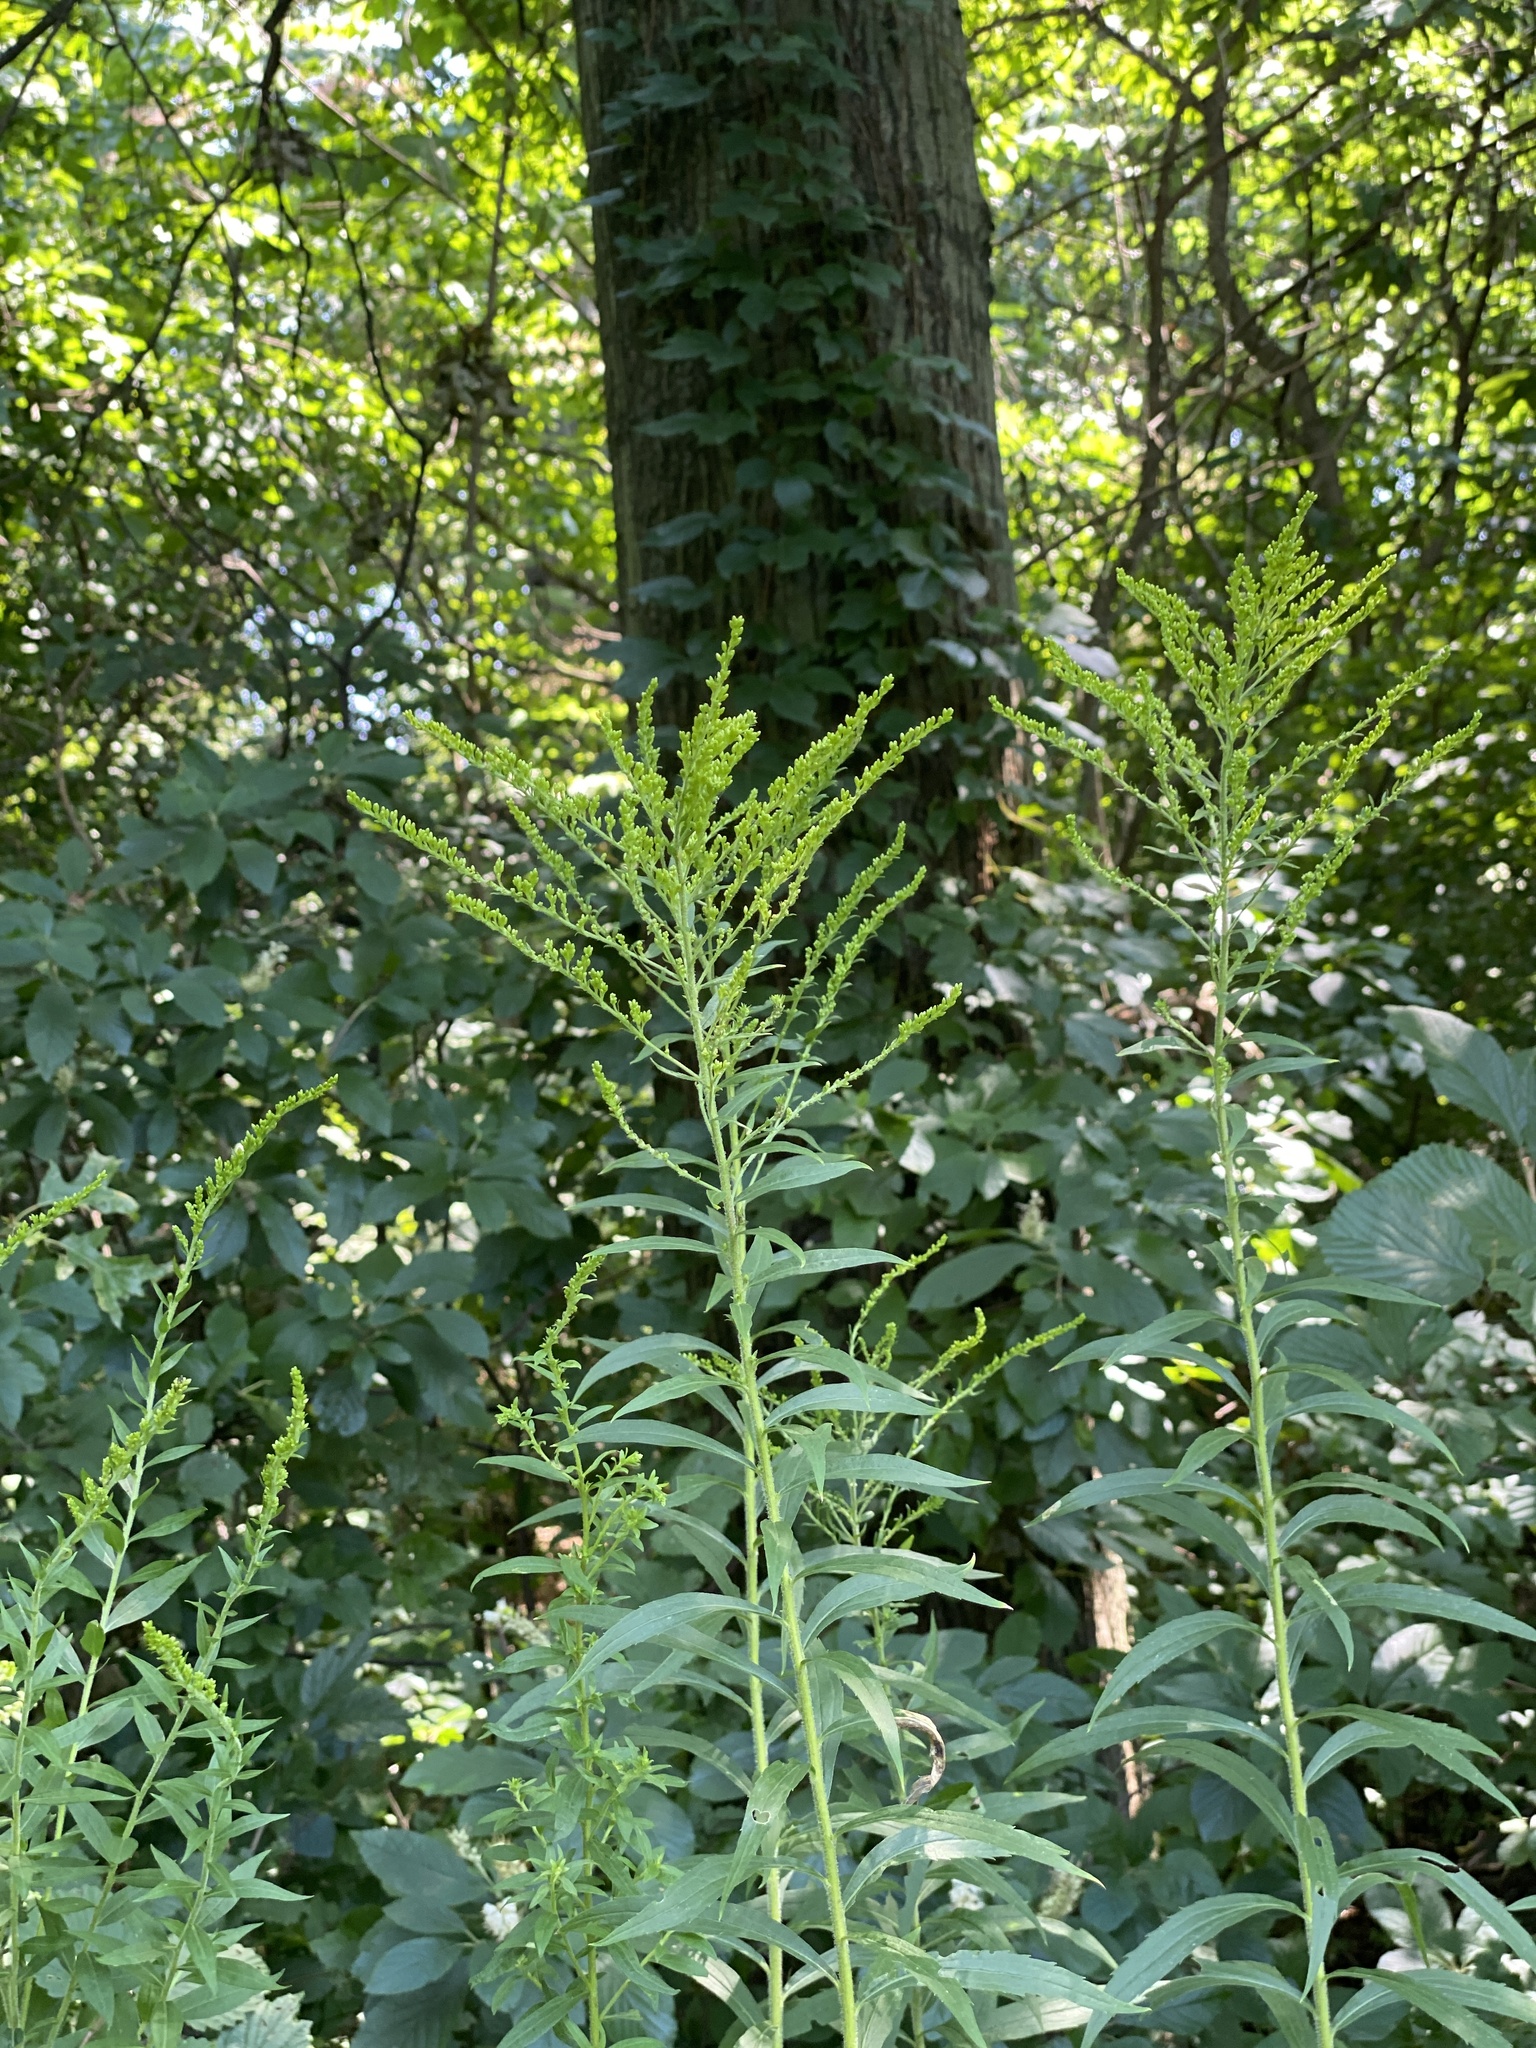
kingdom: Plantae
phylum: Tracheophyta
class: Magnoliopsida
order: Asterales
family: Asteraceae
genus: Solidago
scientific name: Solidago canadensis
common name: Canada goldenrod
